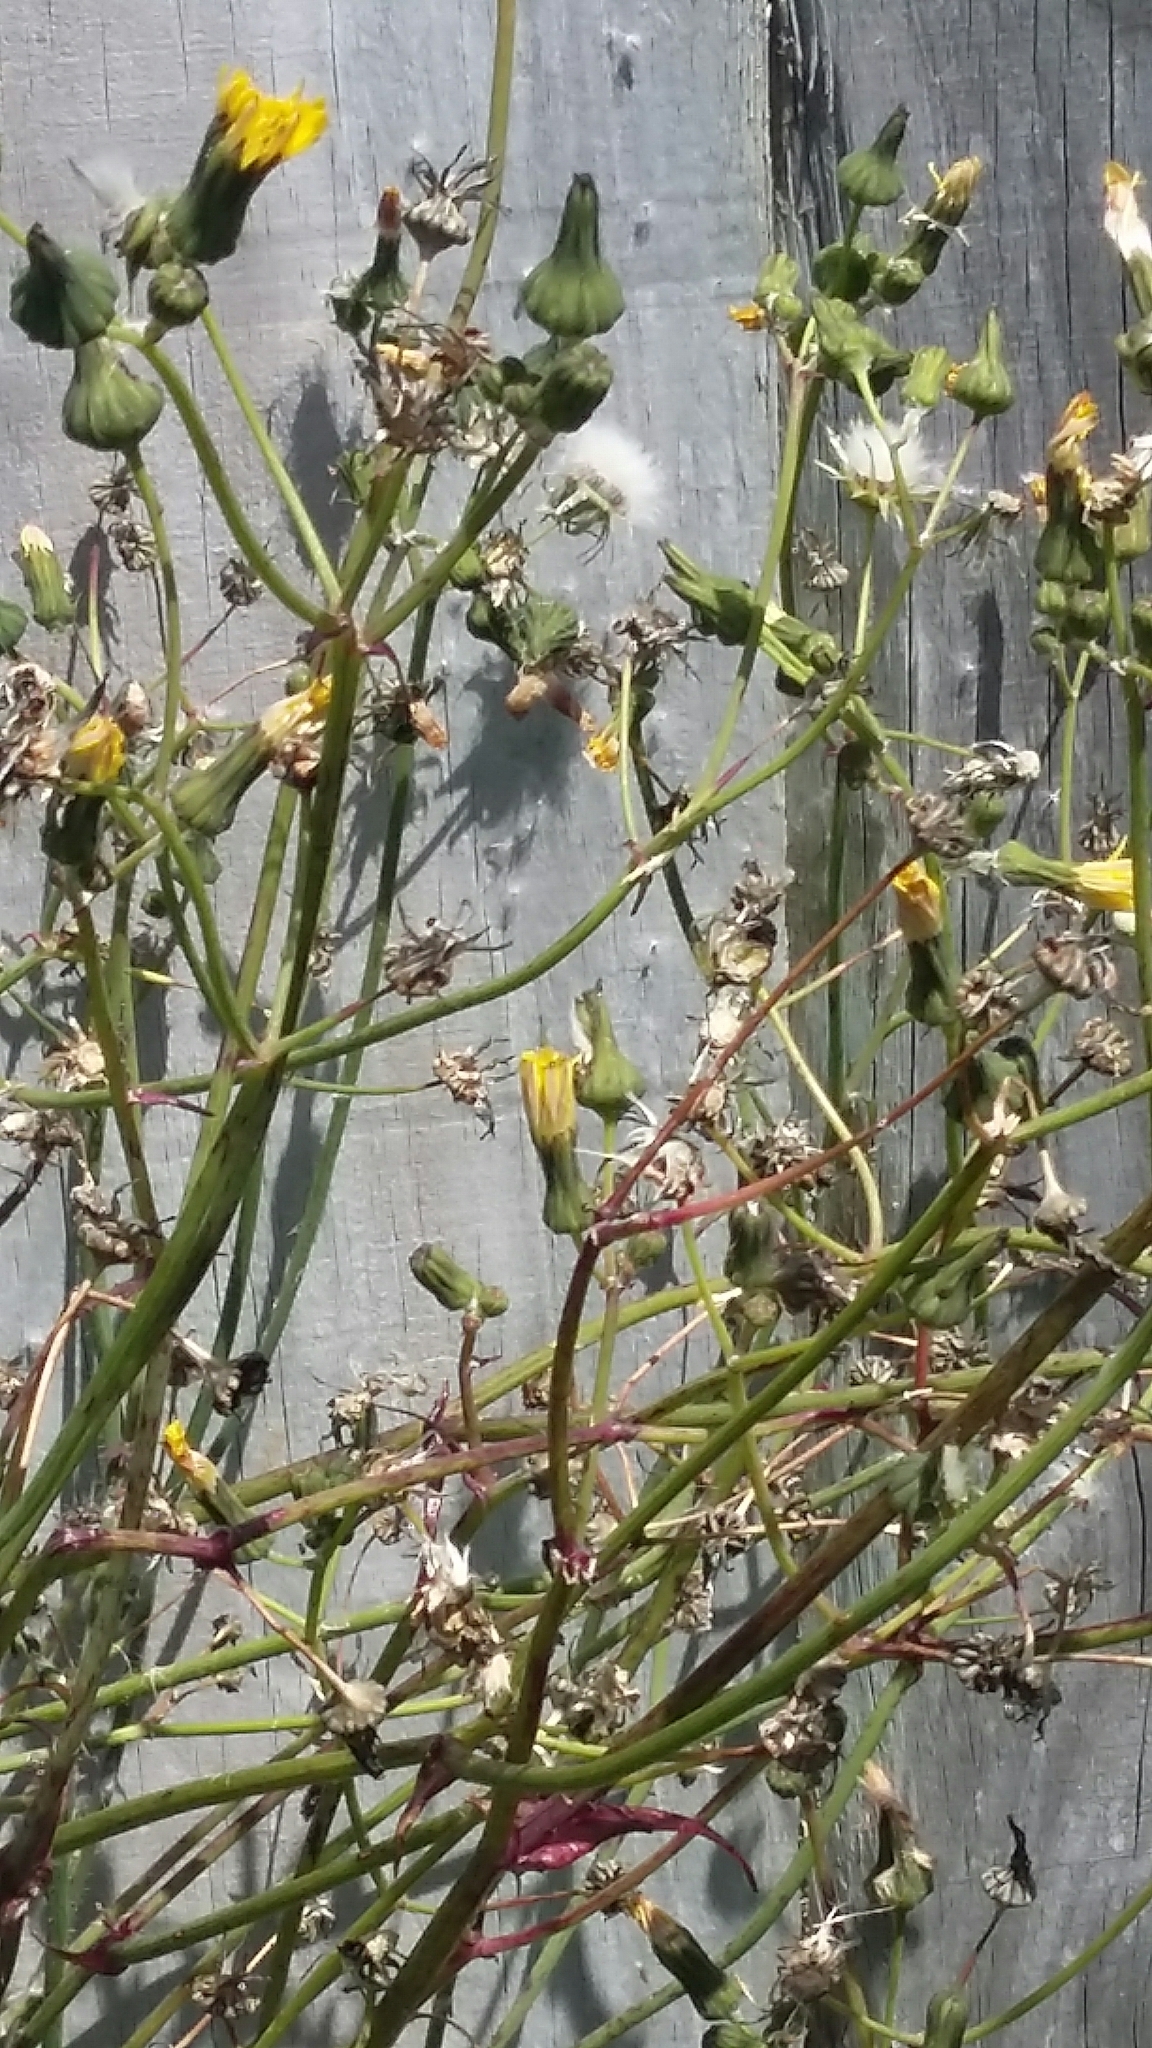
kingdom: Plantae
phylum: Tracheophyta
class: Magnoliopsida
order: Asterales
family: Asteraceae
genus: Sonchus
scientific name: Sonchus oleraceus
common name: Common sowthistle
